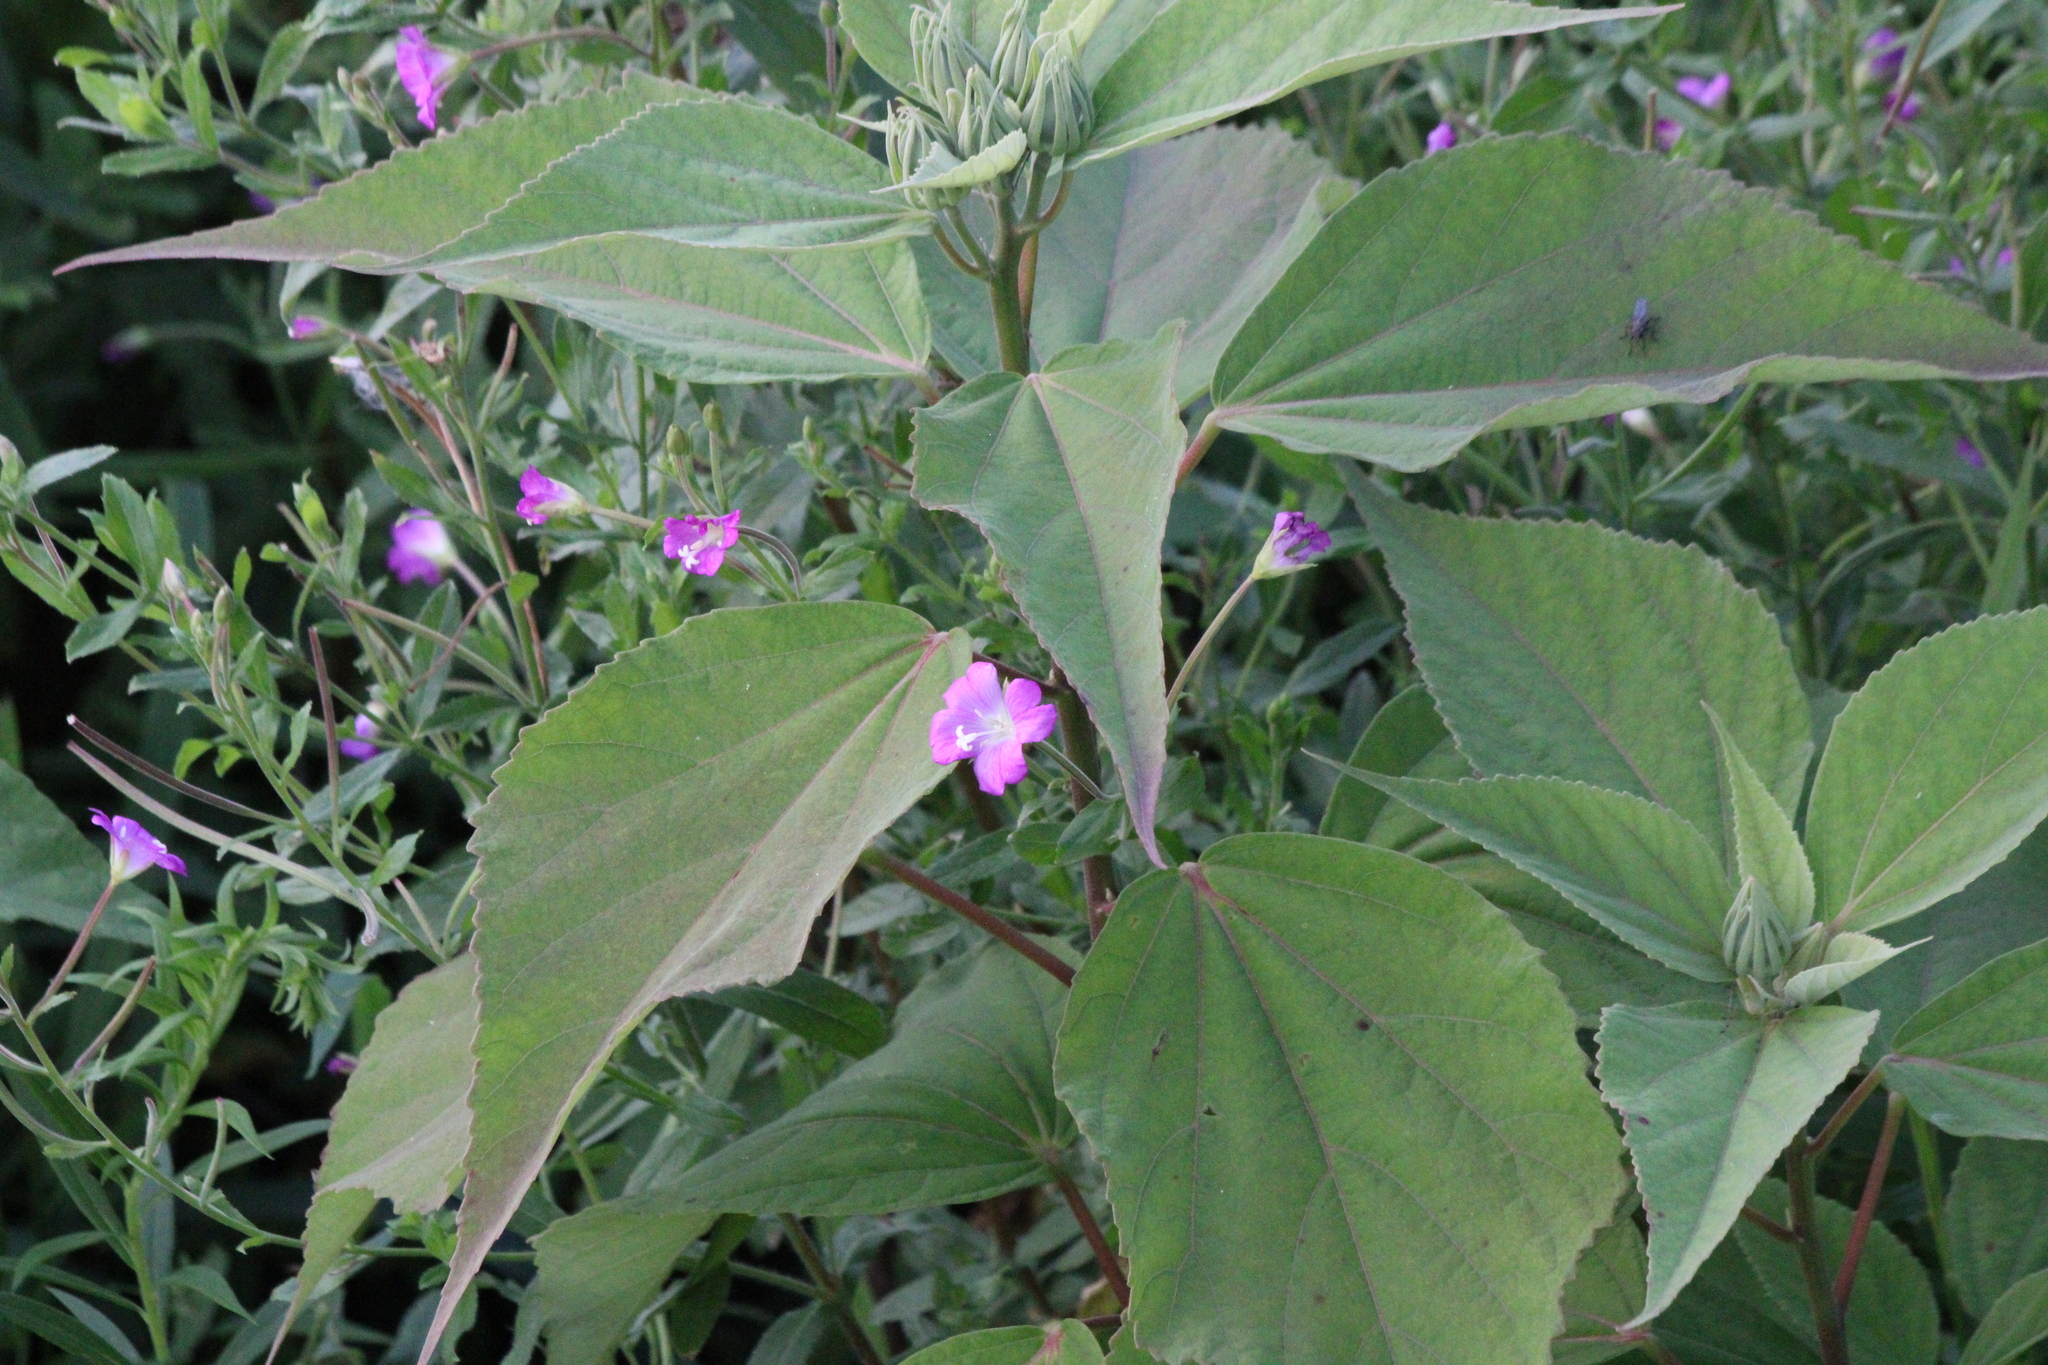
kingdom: Plantae
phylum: Tracheophyta
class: Magnoliopsida
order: Myrtales
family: Onagraceae
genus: Epilobium
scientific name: Epilobium hirsutum
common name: Great willowherb
